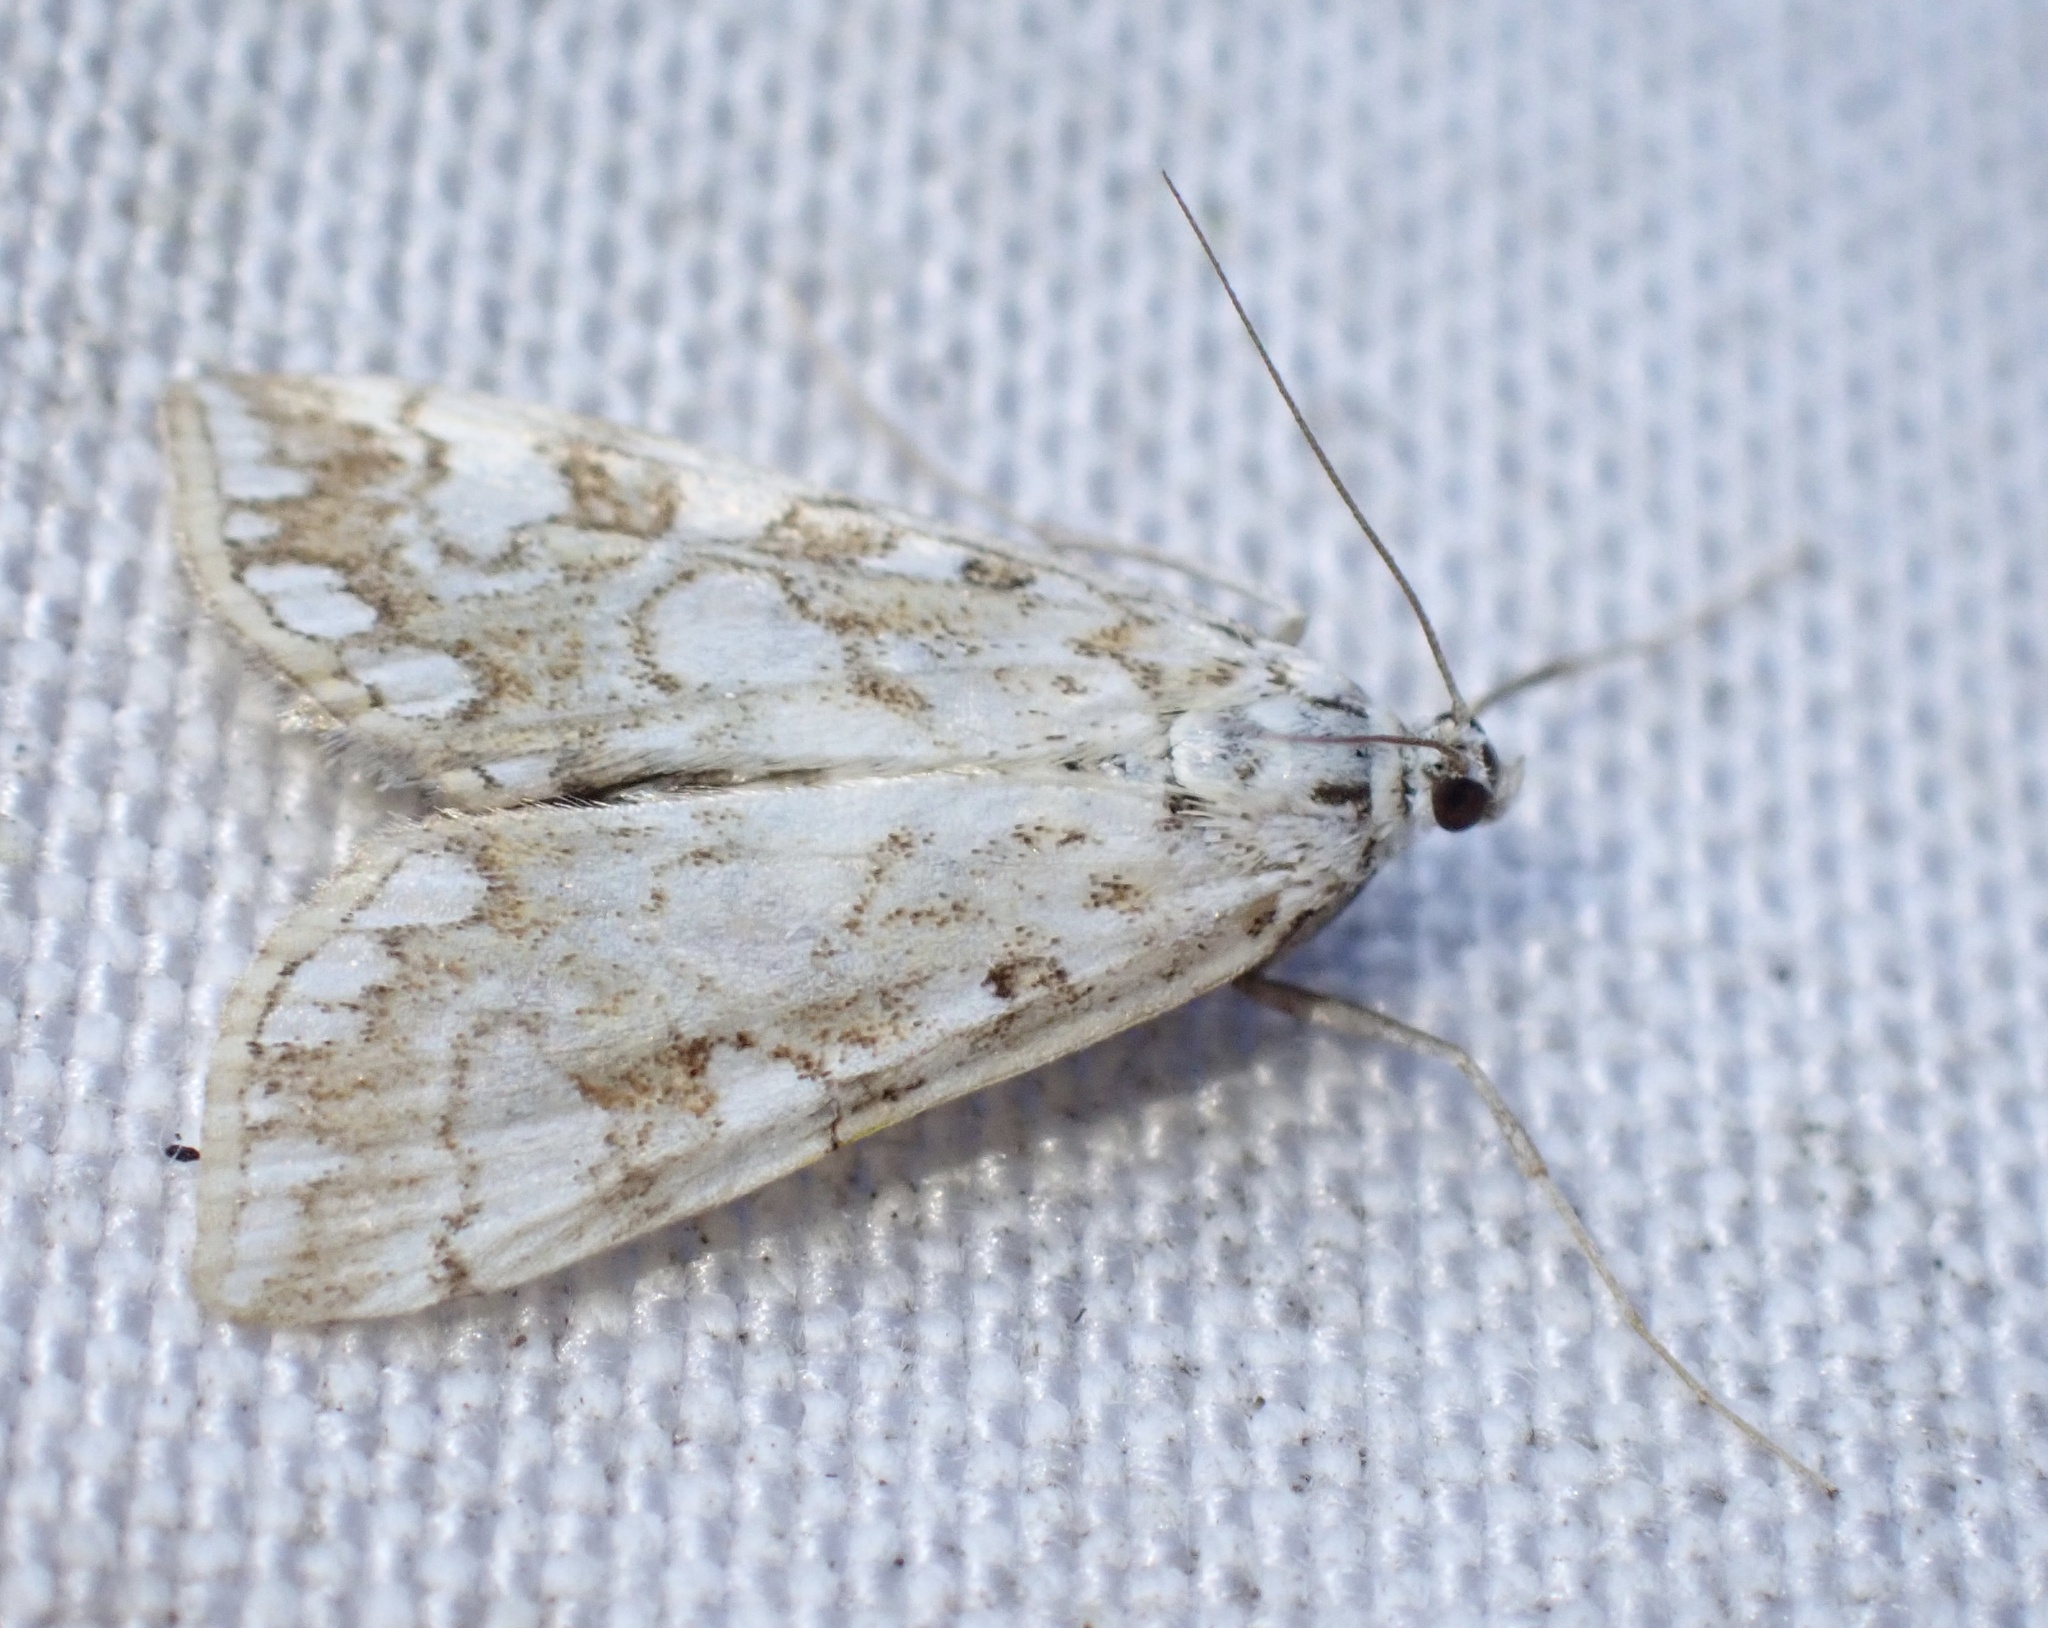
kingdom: Animalia
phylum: Arthropoda
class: Insecta
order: Lepidoptera
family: Crambidae
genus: Elophila
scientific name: Elophila nymphaeata
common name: Brown china-mark
